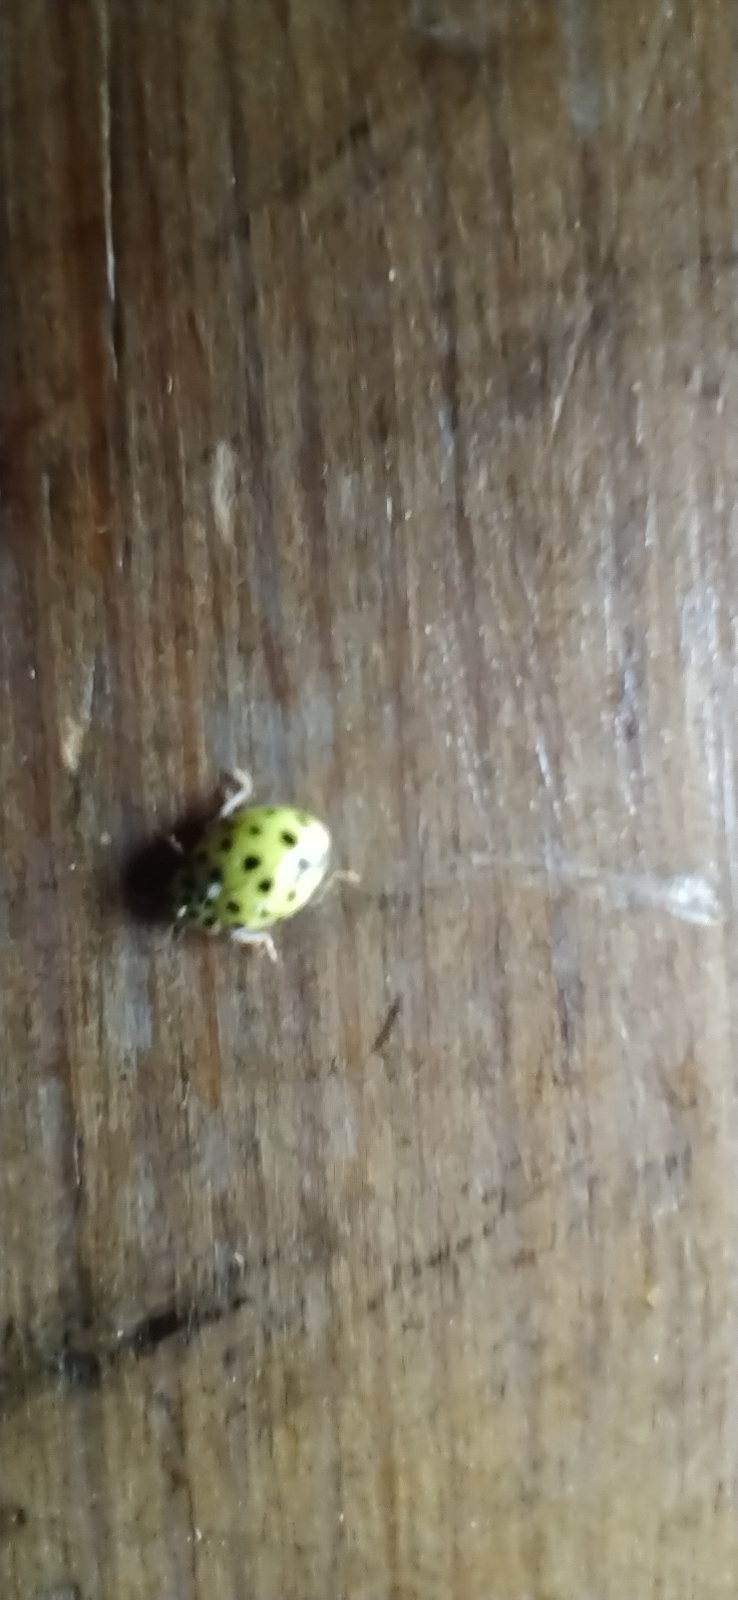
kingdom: Animalia
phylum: Arthropoda
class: Insecta
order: Coleoptera
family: Coccinellidae
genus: Psyllobora
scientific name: Psyllobora vigintiduopunctata
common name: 22-spot ladybird
